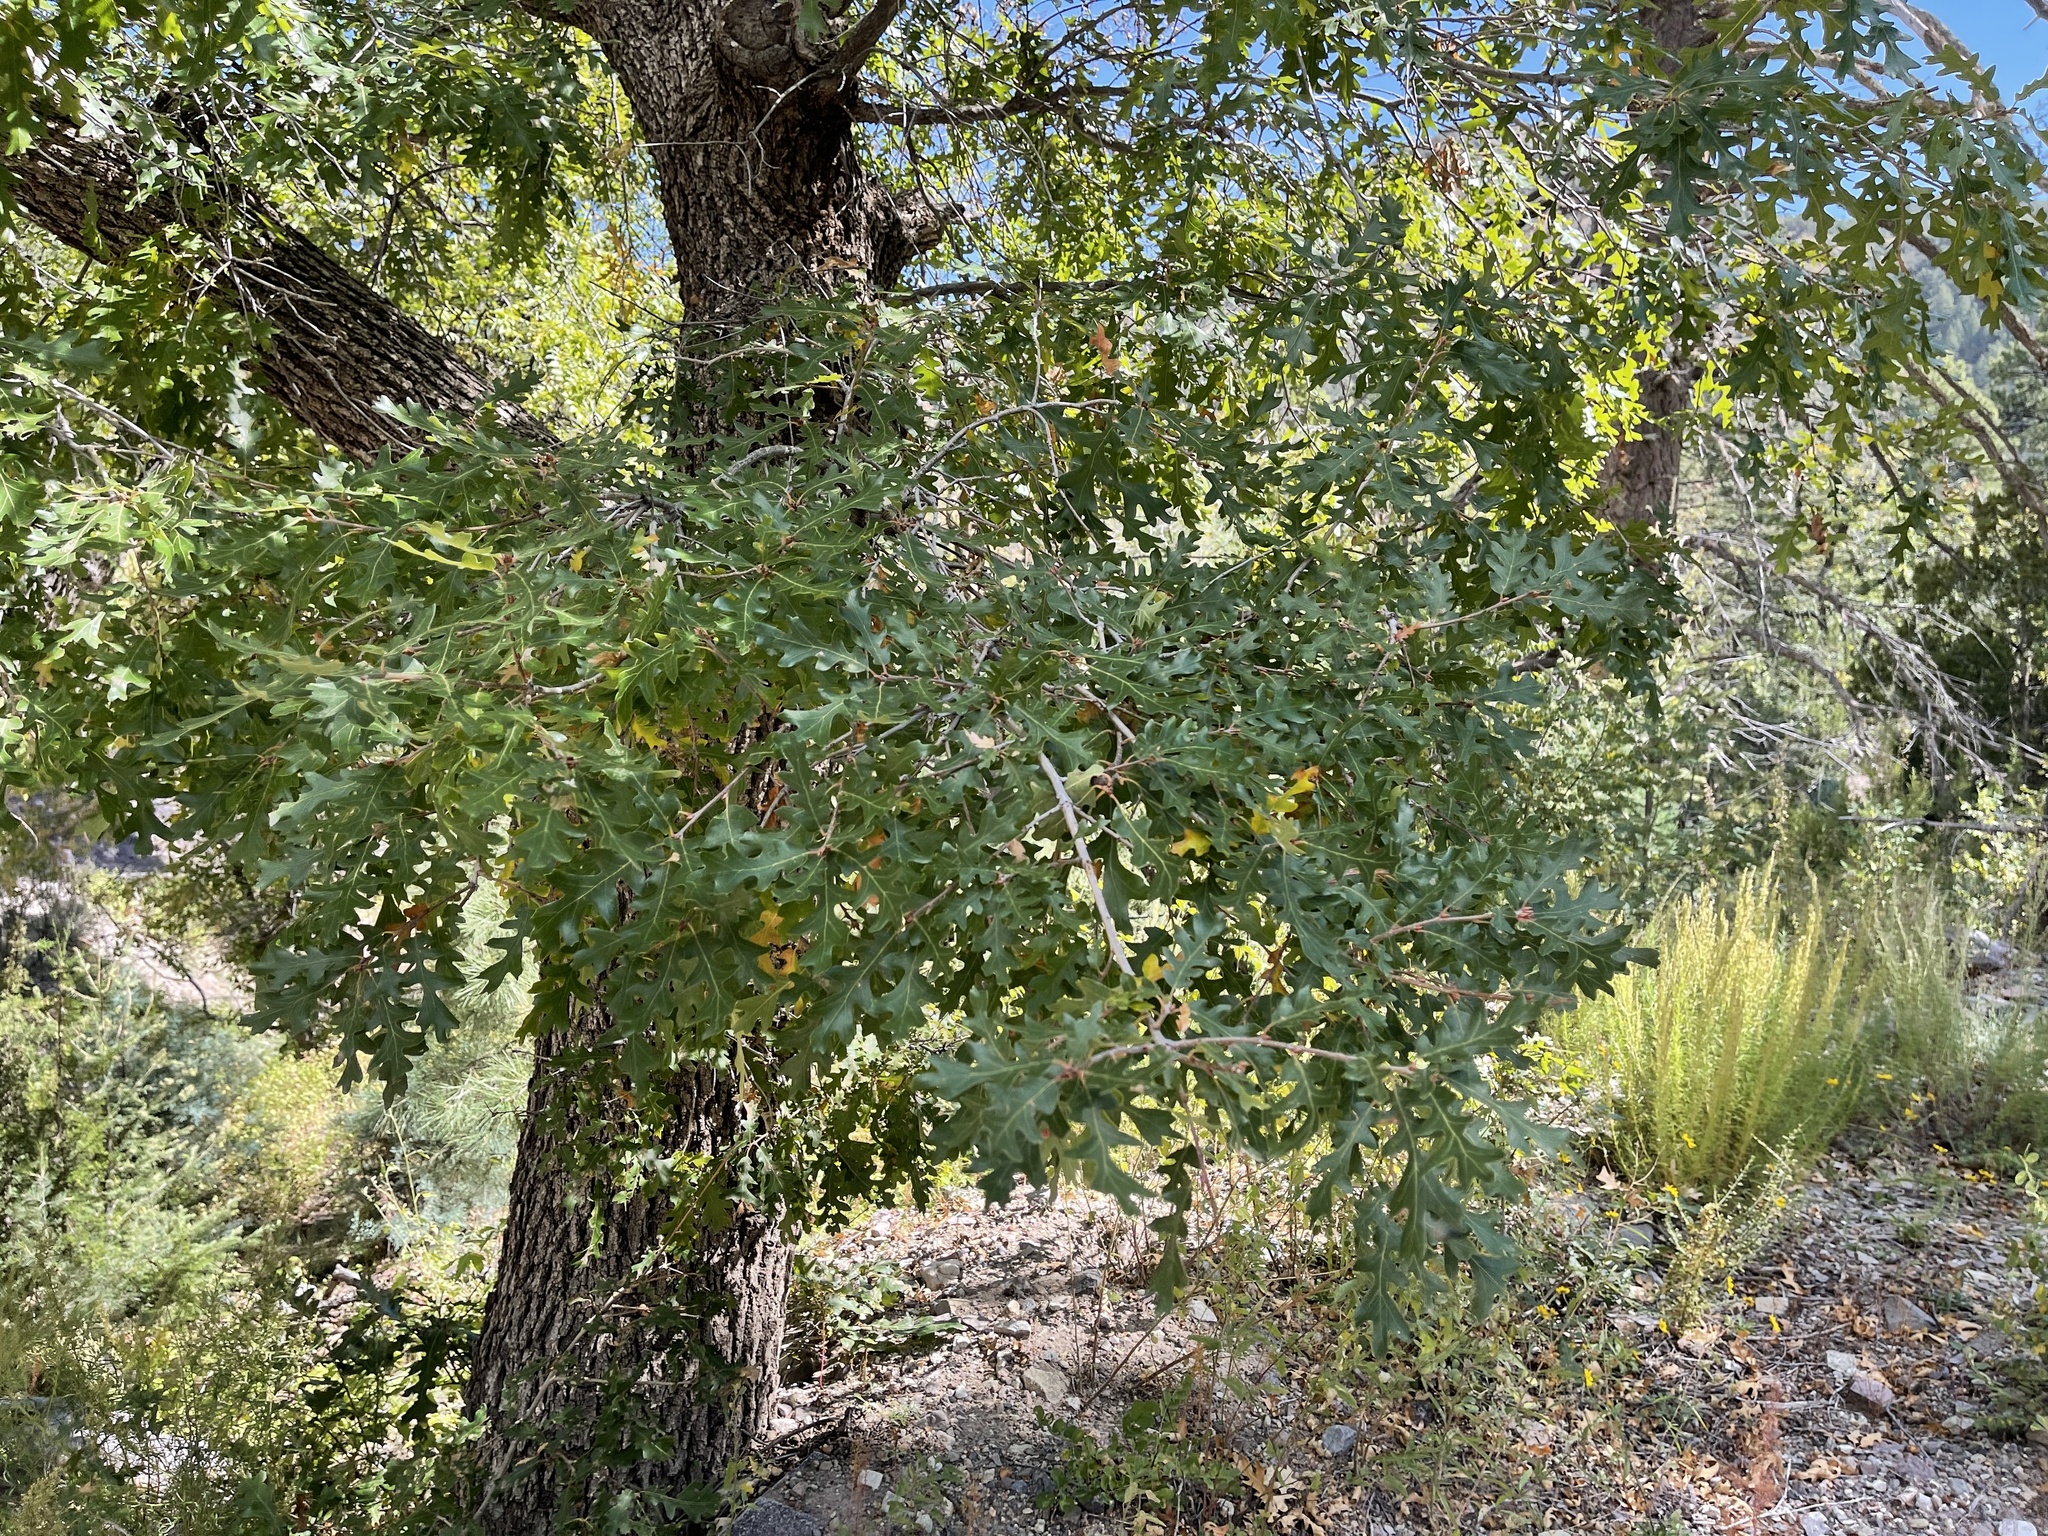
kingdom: Plantae
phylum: Tracheophyta
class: Magnoliopsida
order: Fagales
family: Fagaceae
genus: Quercus
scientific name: Quercus gambelii
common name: Gambel oak
